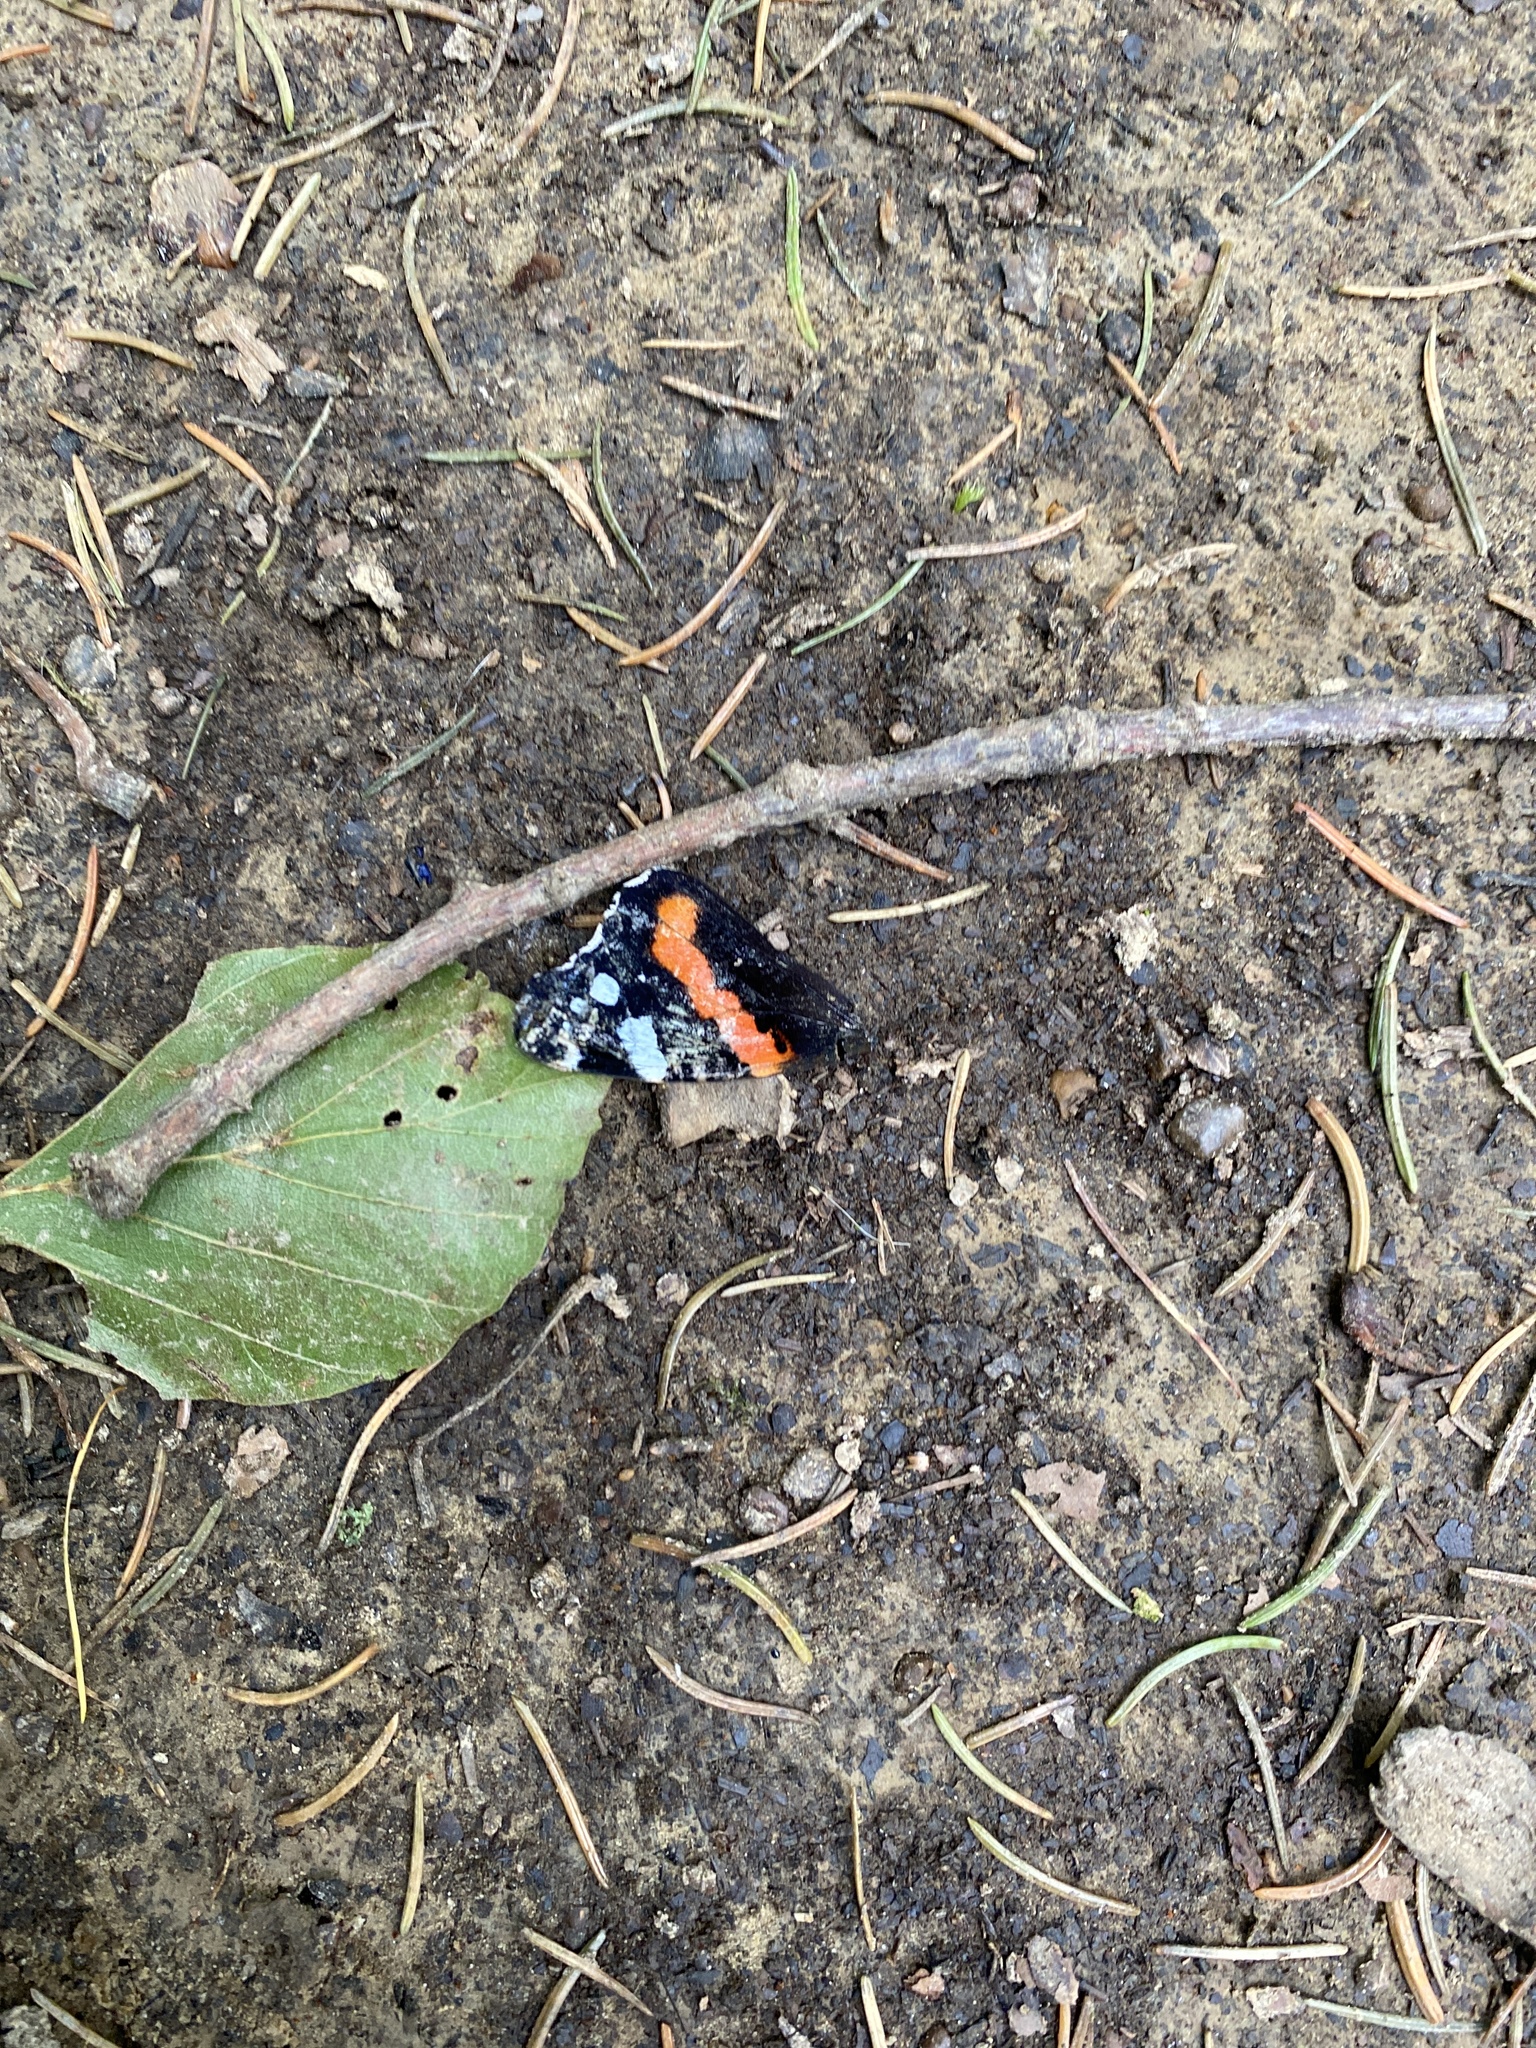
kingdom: Animalia
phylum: Arthropoda
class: Insecta
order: Lepidoptera
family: Nymphalidae
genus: Vanessa
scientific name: Vanessa atalanta
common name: Red admiral
